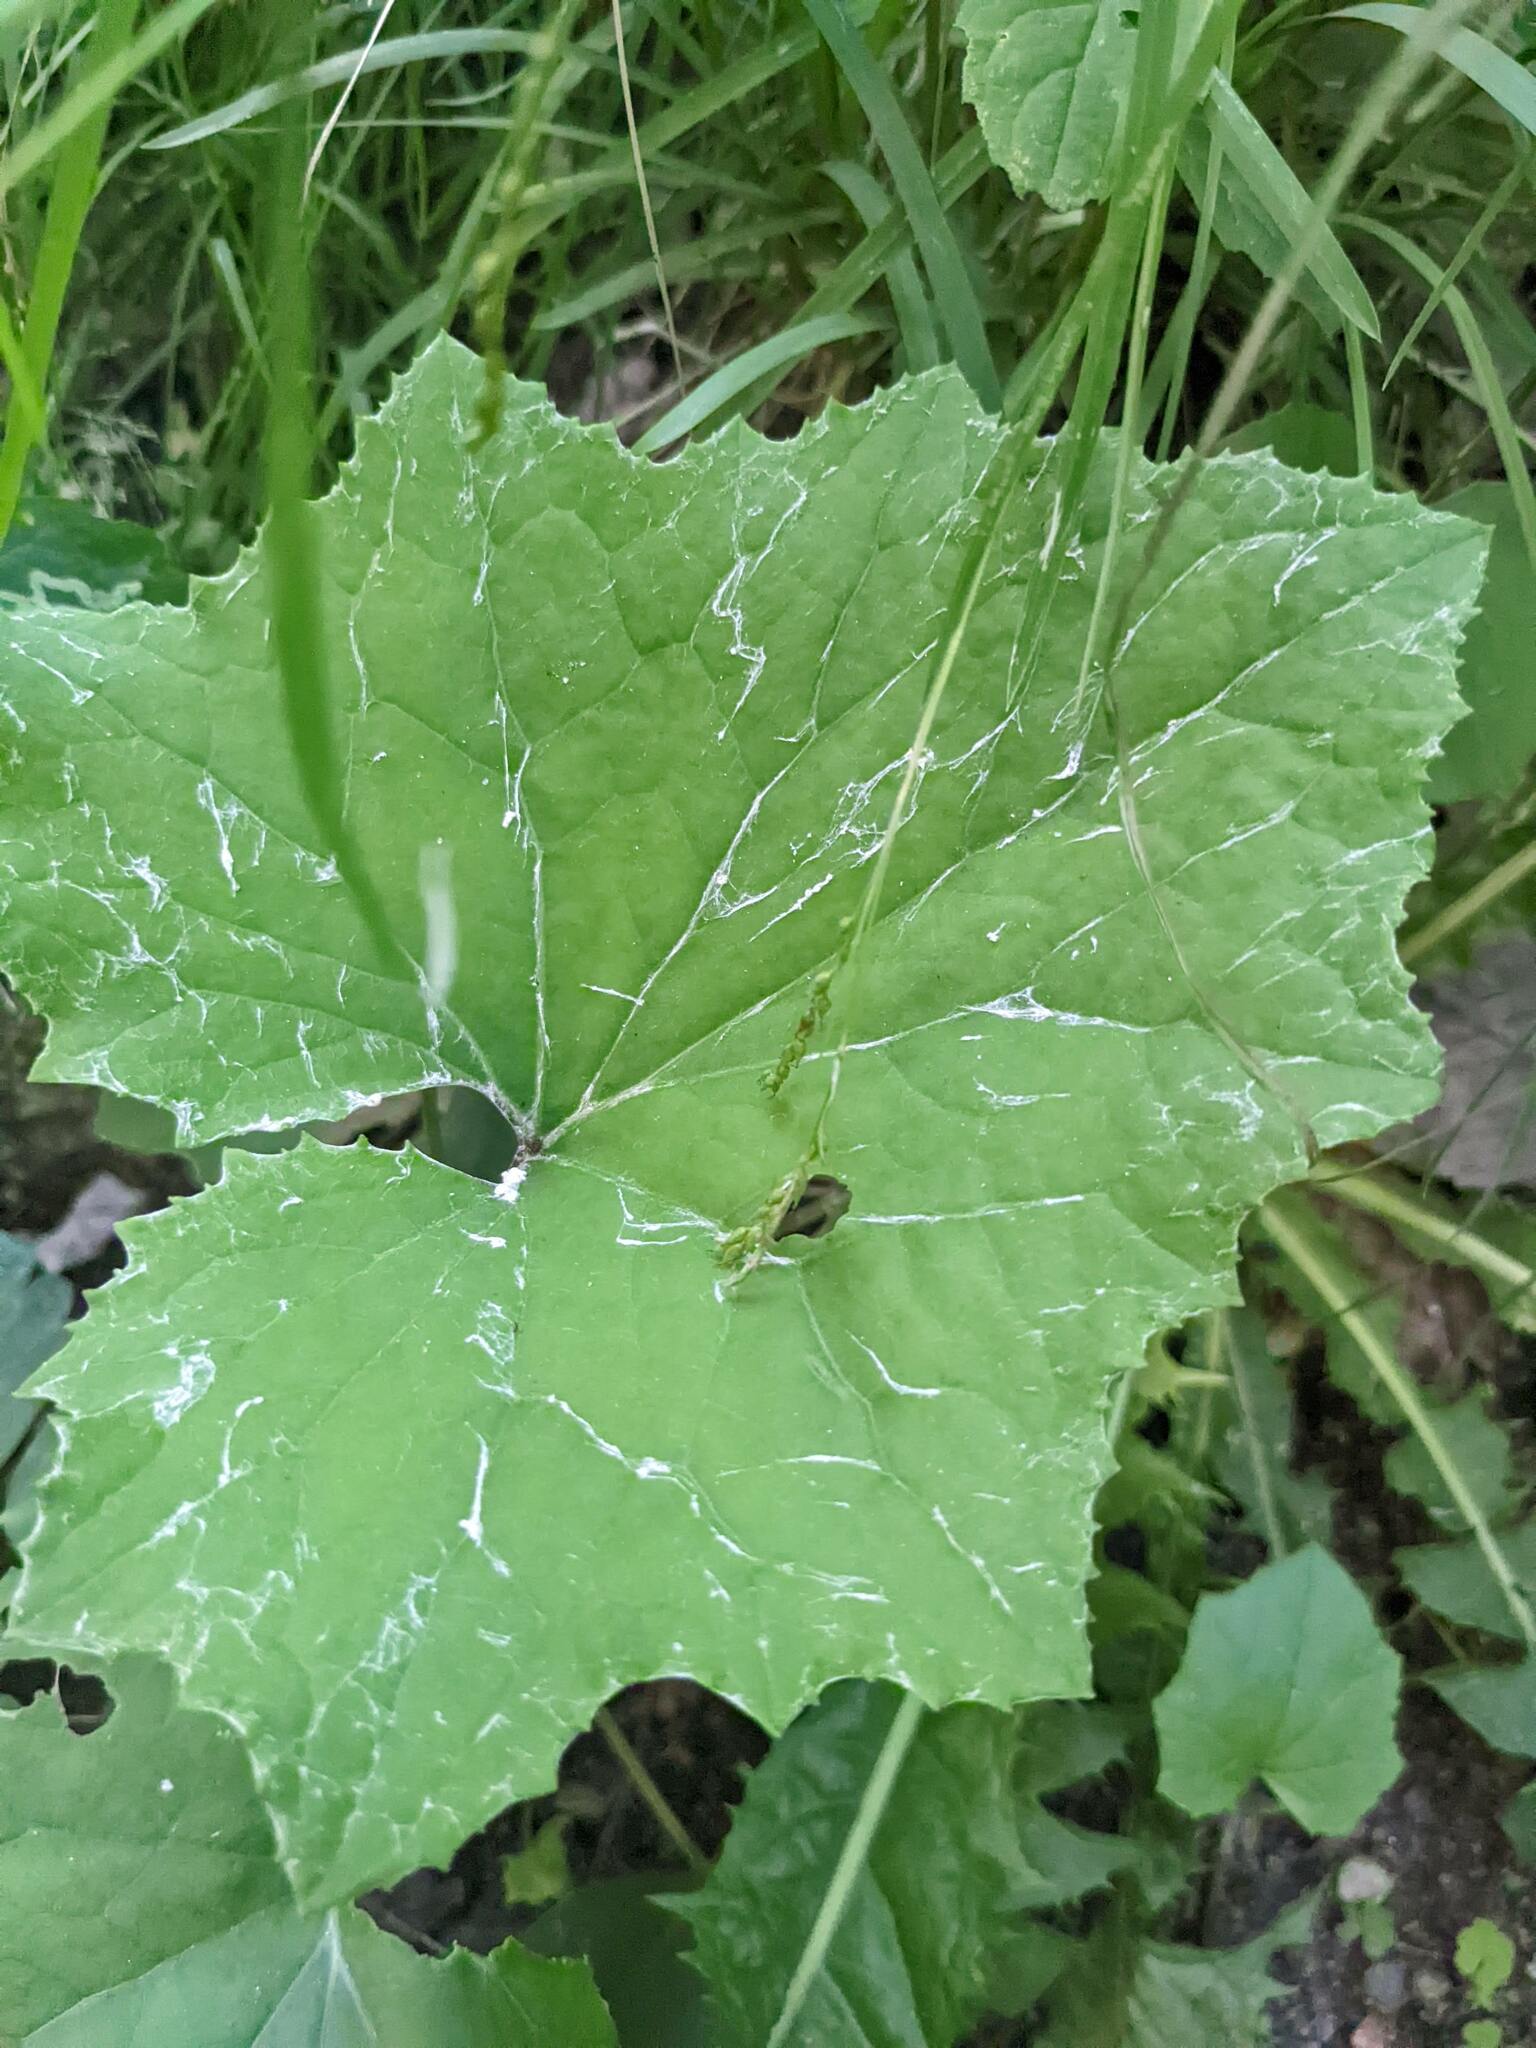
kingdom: Plantae
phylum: Tracheophyta
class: Magnoliopsida
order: Asterales
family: Asteraceae
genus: Tussilago
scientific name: Tussilago farfara
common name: Coltsfoot
